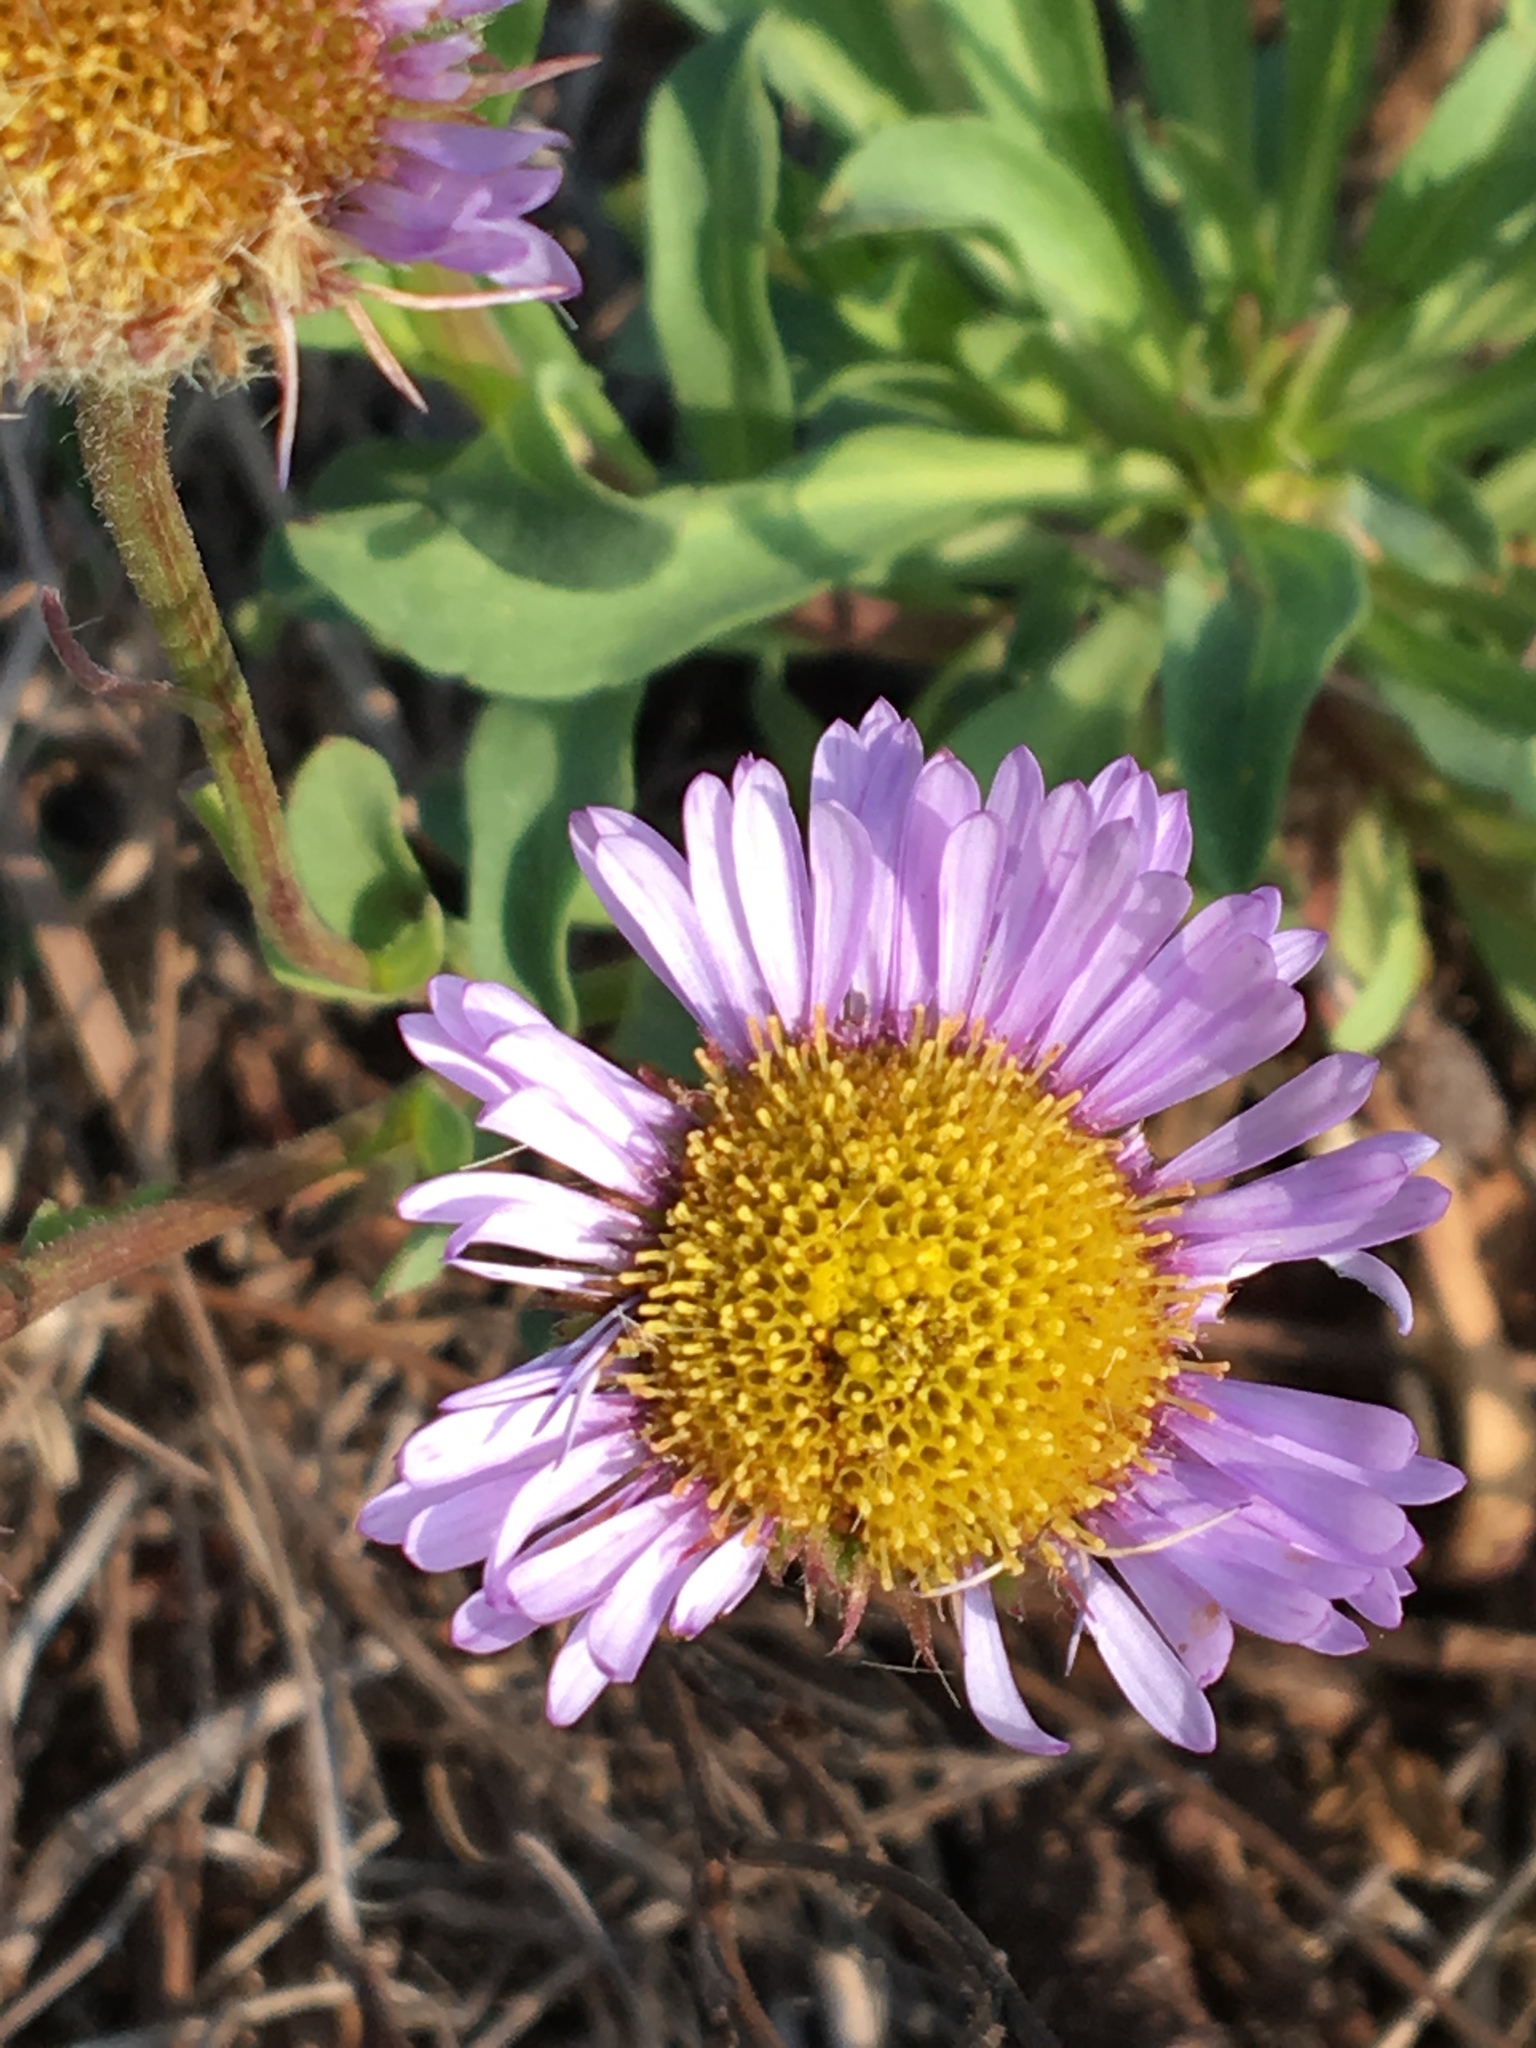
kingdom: Plantae
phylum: Tracheophyta
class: Magnoliopsida
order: Asterales
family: Asteraceae
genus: Erigeron
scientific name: Erigeron glaucus
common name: Seaside daisy
